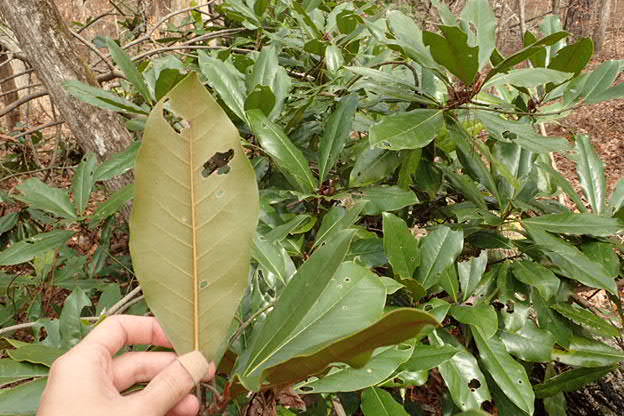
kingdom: Plantae
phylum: Tracheophyta
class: Magnoliopsida
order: Magnoliales
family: Magnoliaceae
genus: Magnolia
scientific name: Magnolia grandiflora
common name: Southern magnolia
